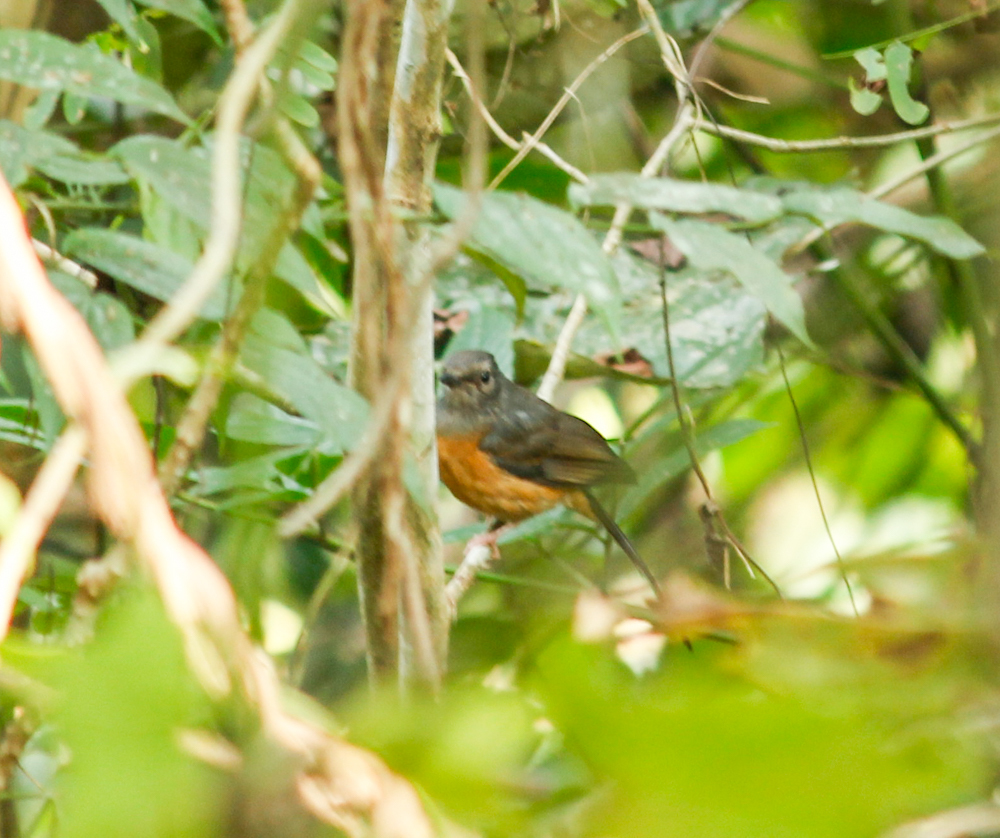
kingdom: Animalia
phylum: Chordata
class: Aves
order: Passeriformes
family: Muscicapidae
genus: Copsychus
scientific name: Copsychus malabaricus
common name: White-rumped shama
